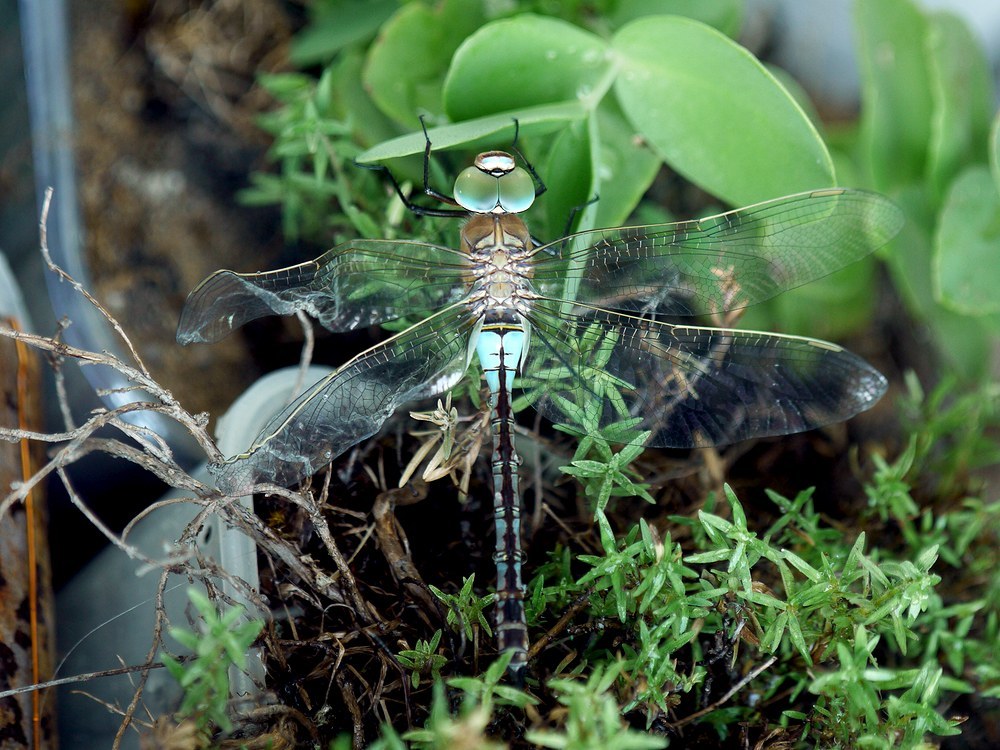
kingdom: Animalia
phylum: Arthropoda
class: Insecta
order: Odonata
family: Aeshnidae
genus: Anax
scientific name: Anax parthenope
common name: Lesser emperor
